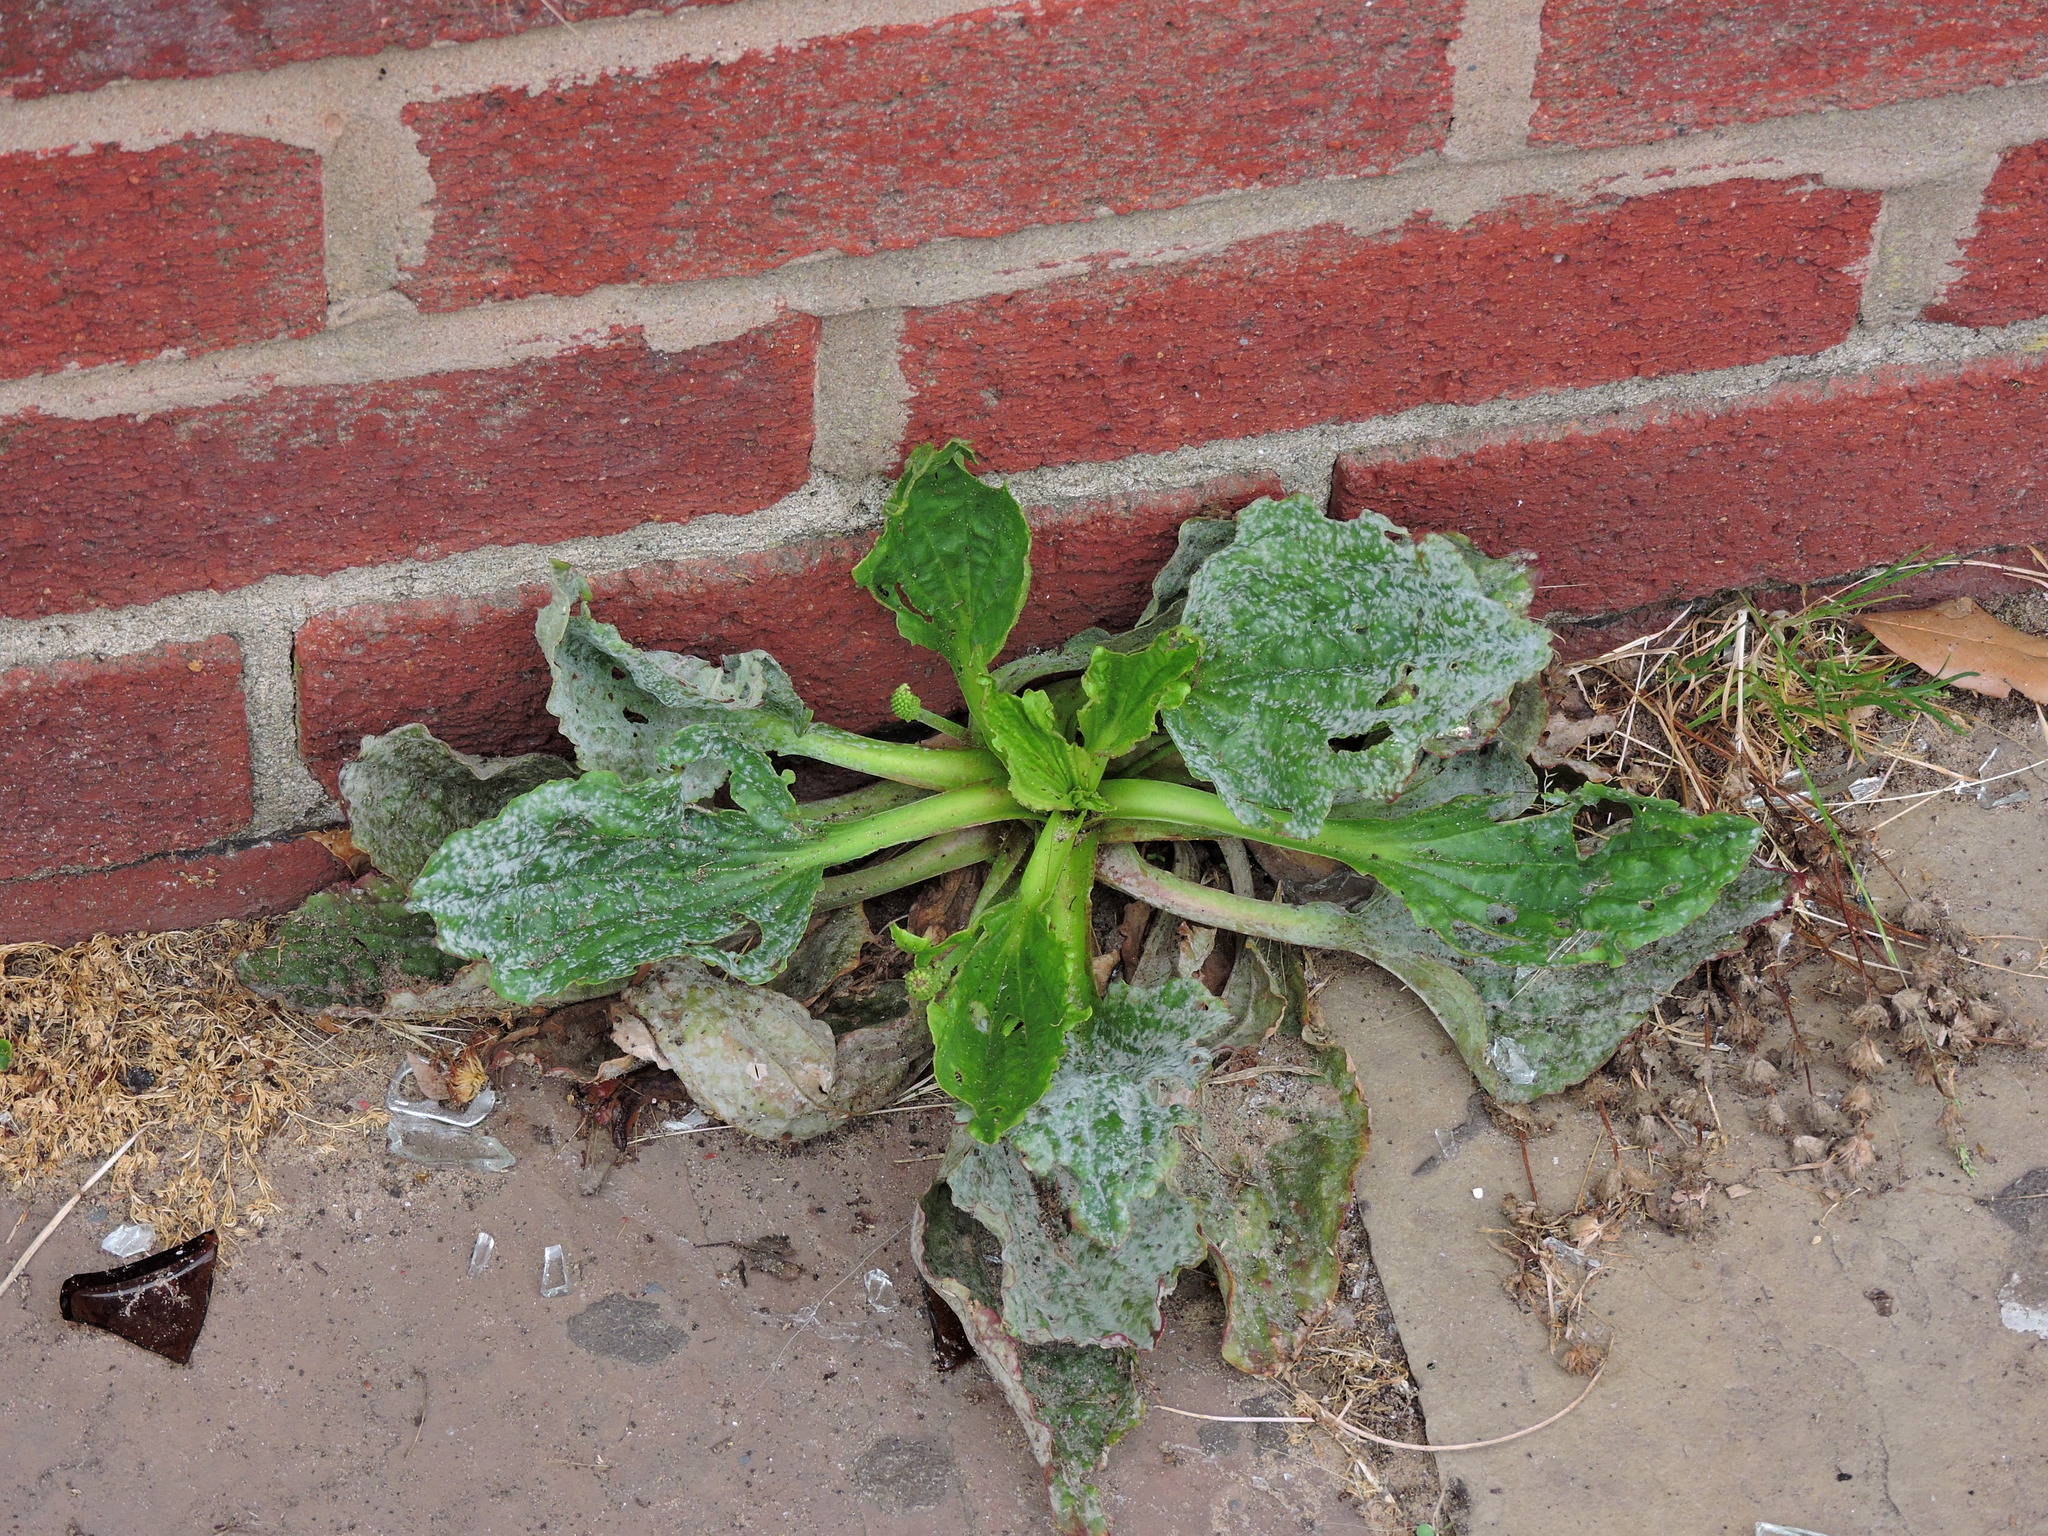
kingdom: Plantae
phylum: Tracheophyta
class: Magnoliopsida
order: Lamiales
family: Plantaginaceae
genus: Plantago
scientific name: Plantago major
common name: Common plantain
